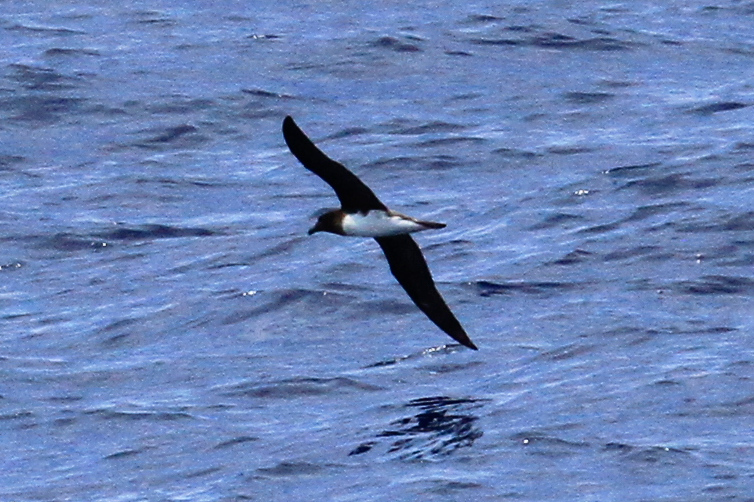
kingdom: Animalia
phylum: Chordata
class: Aves
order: Procellariiformes
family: Procellariidae
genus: Pseudobulweria
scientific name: Pseudobulweria rostrata
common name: Tahiti petrel
